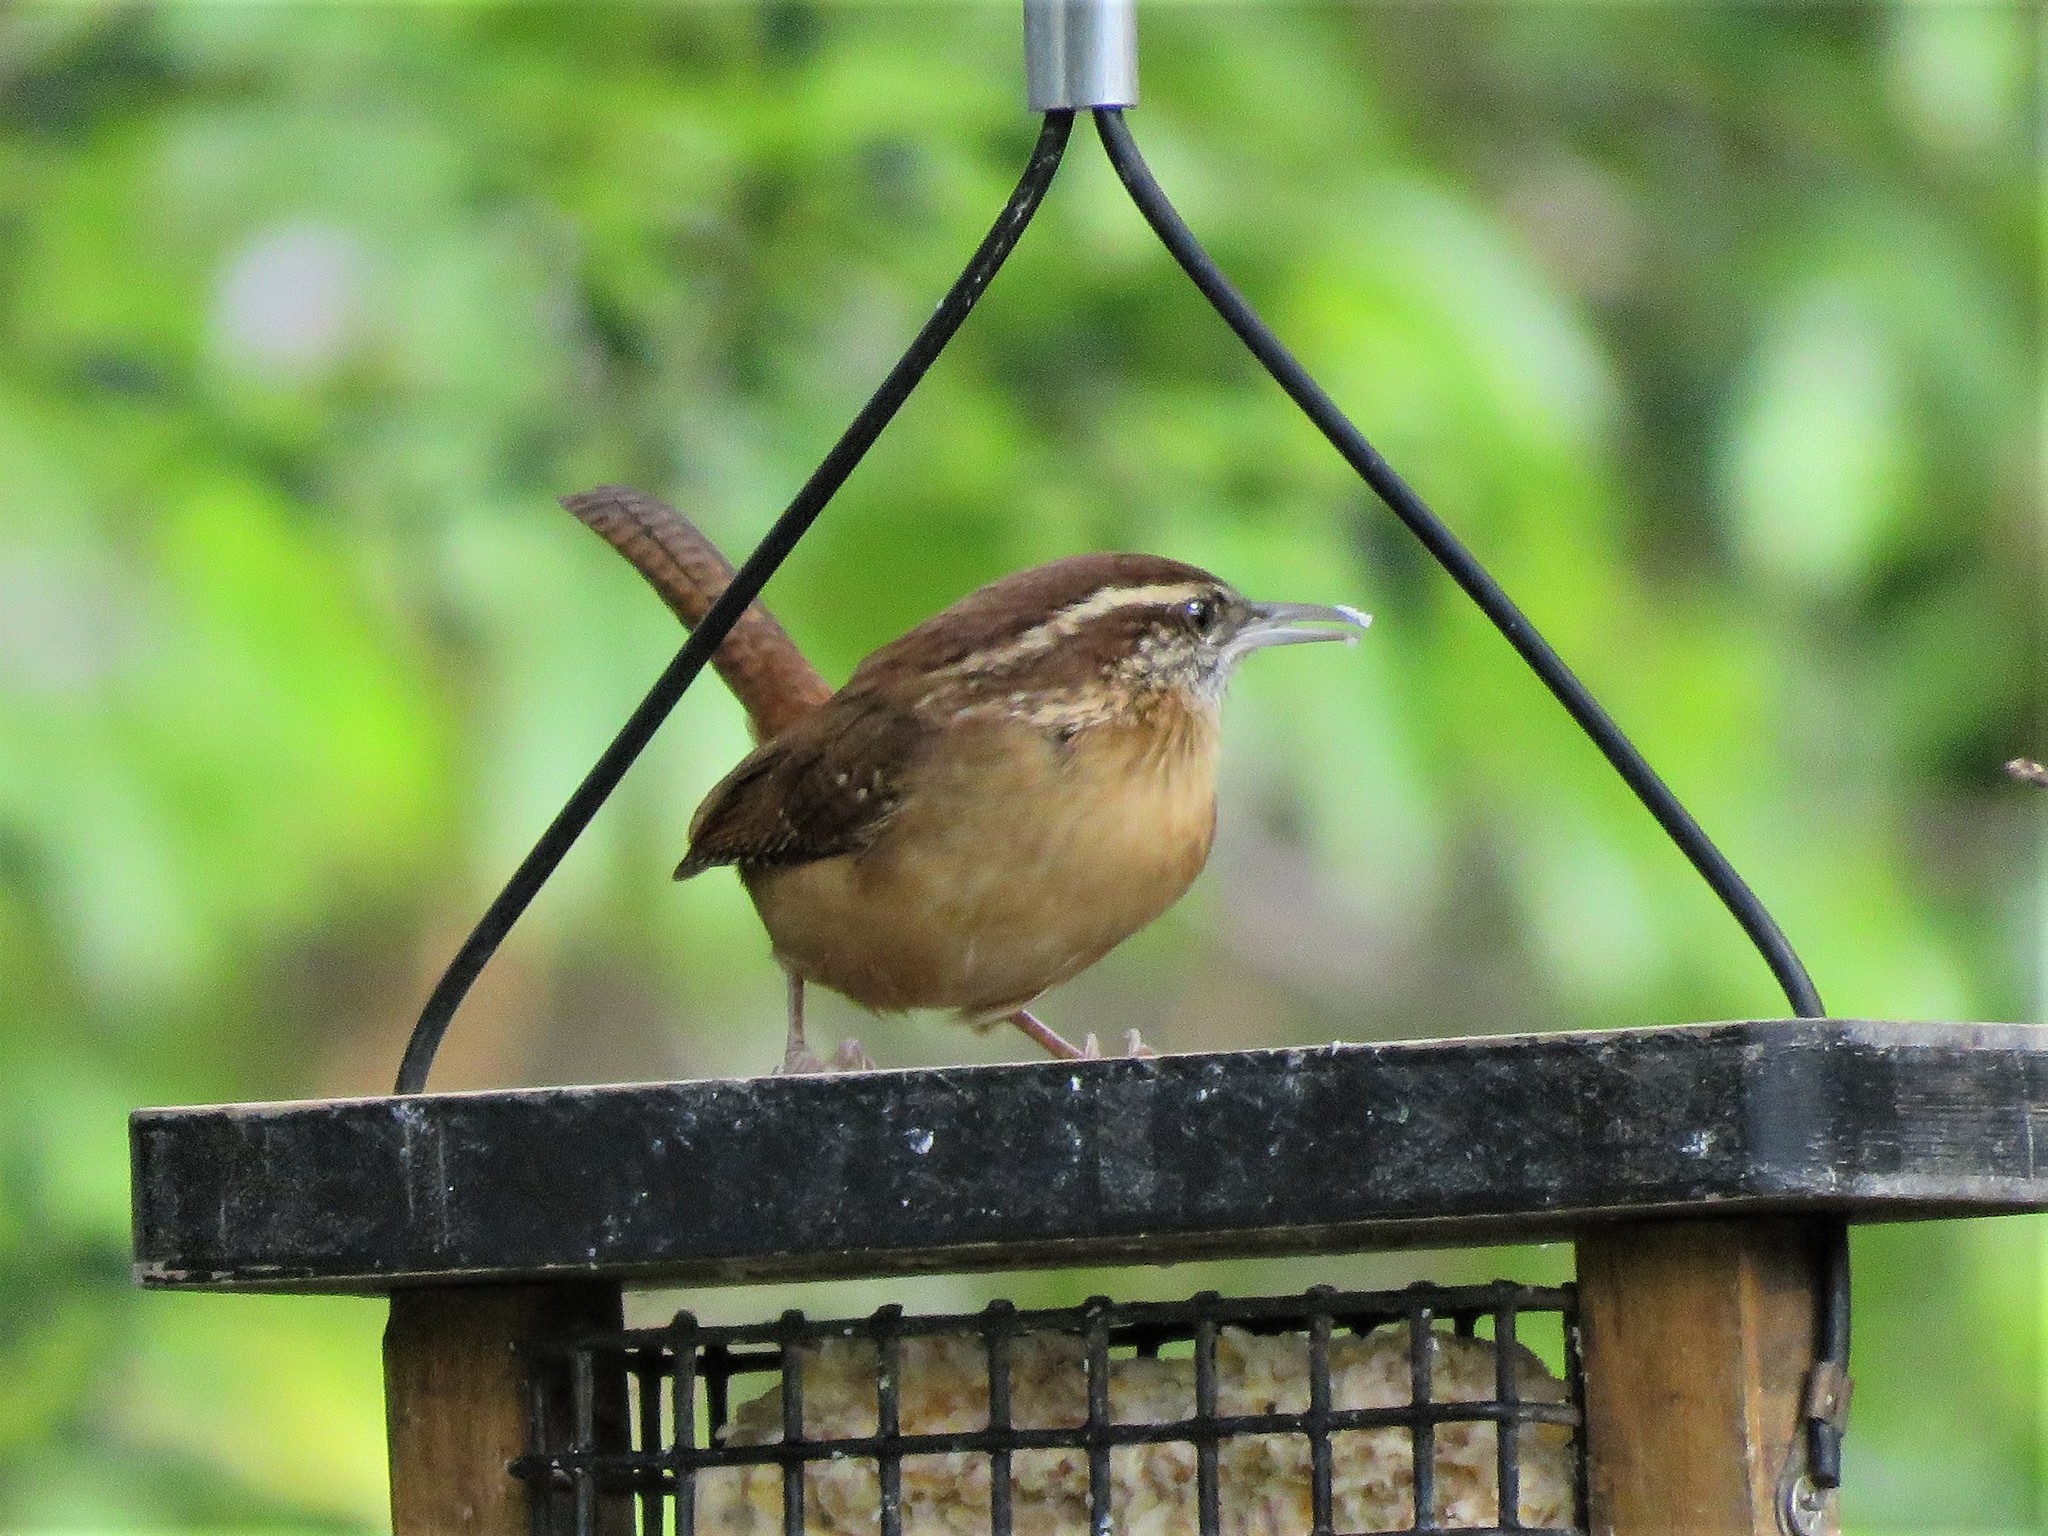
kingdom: Animalia
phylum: Chordata
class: Aves
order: Passeriformes
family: Troglodytidae
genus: Thryothorus
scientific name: Thryothorus ludovicianus
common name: Carolina wren
